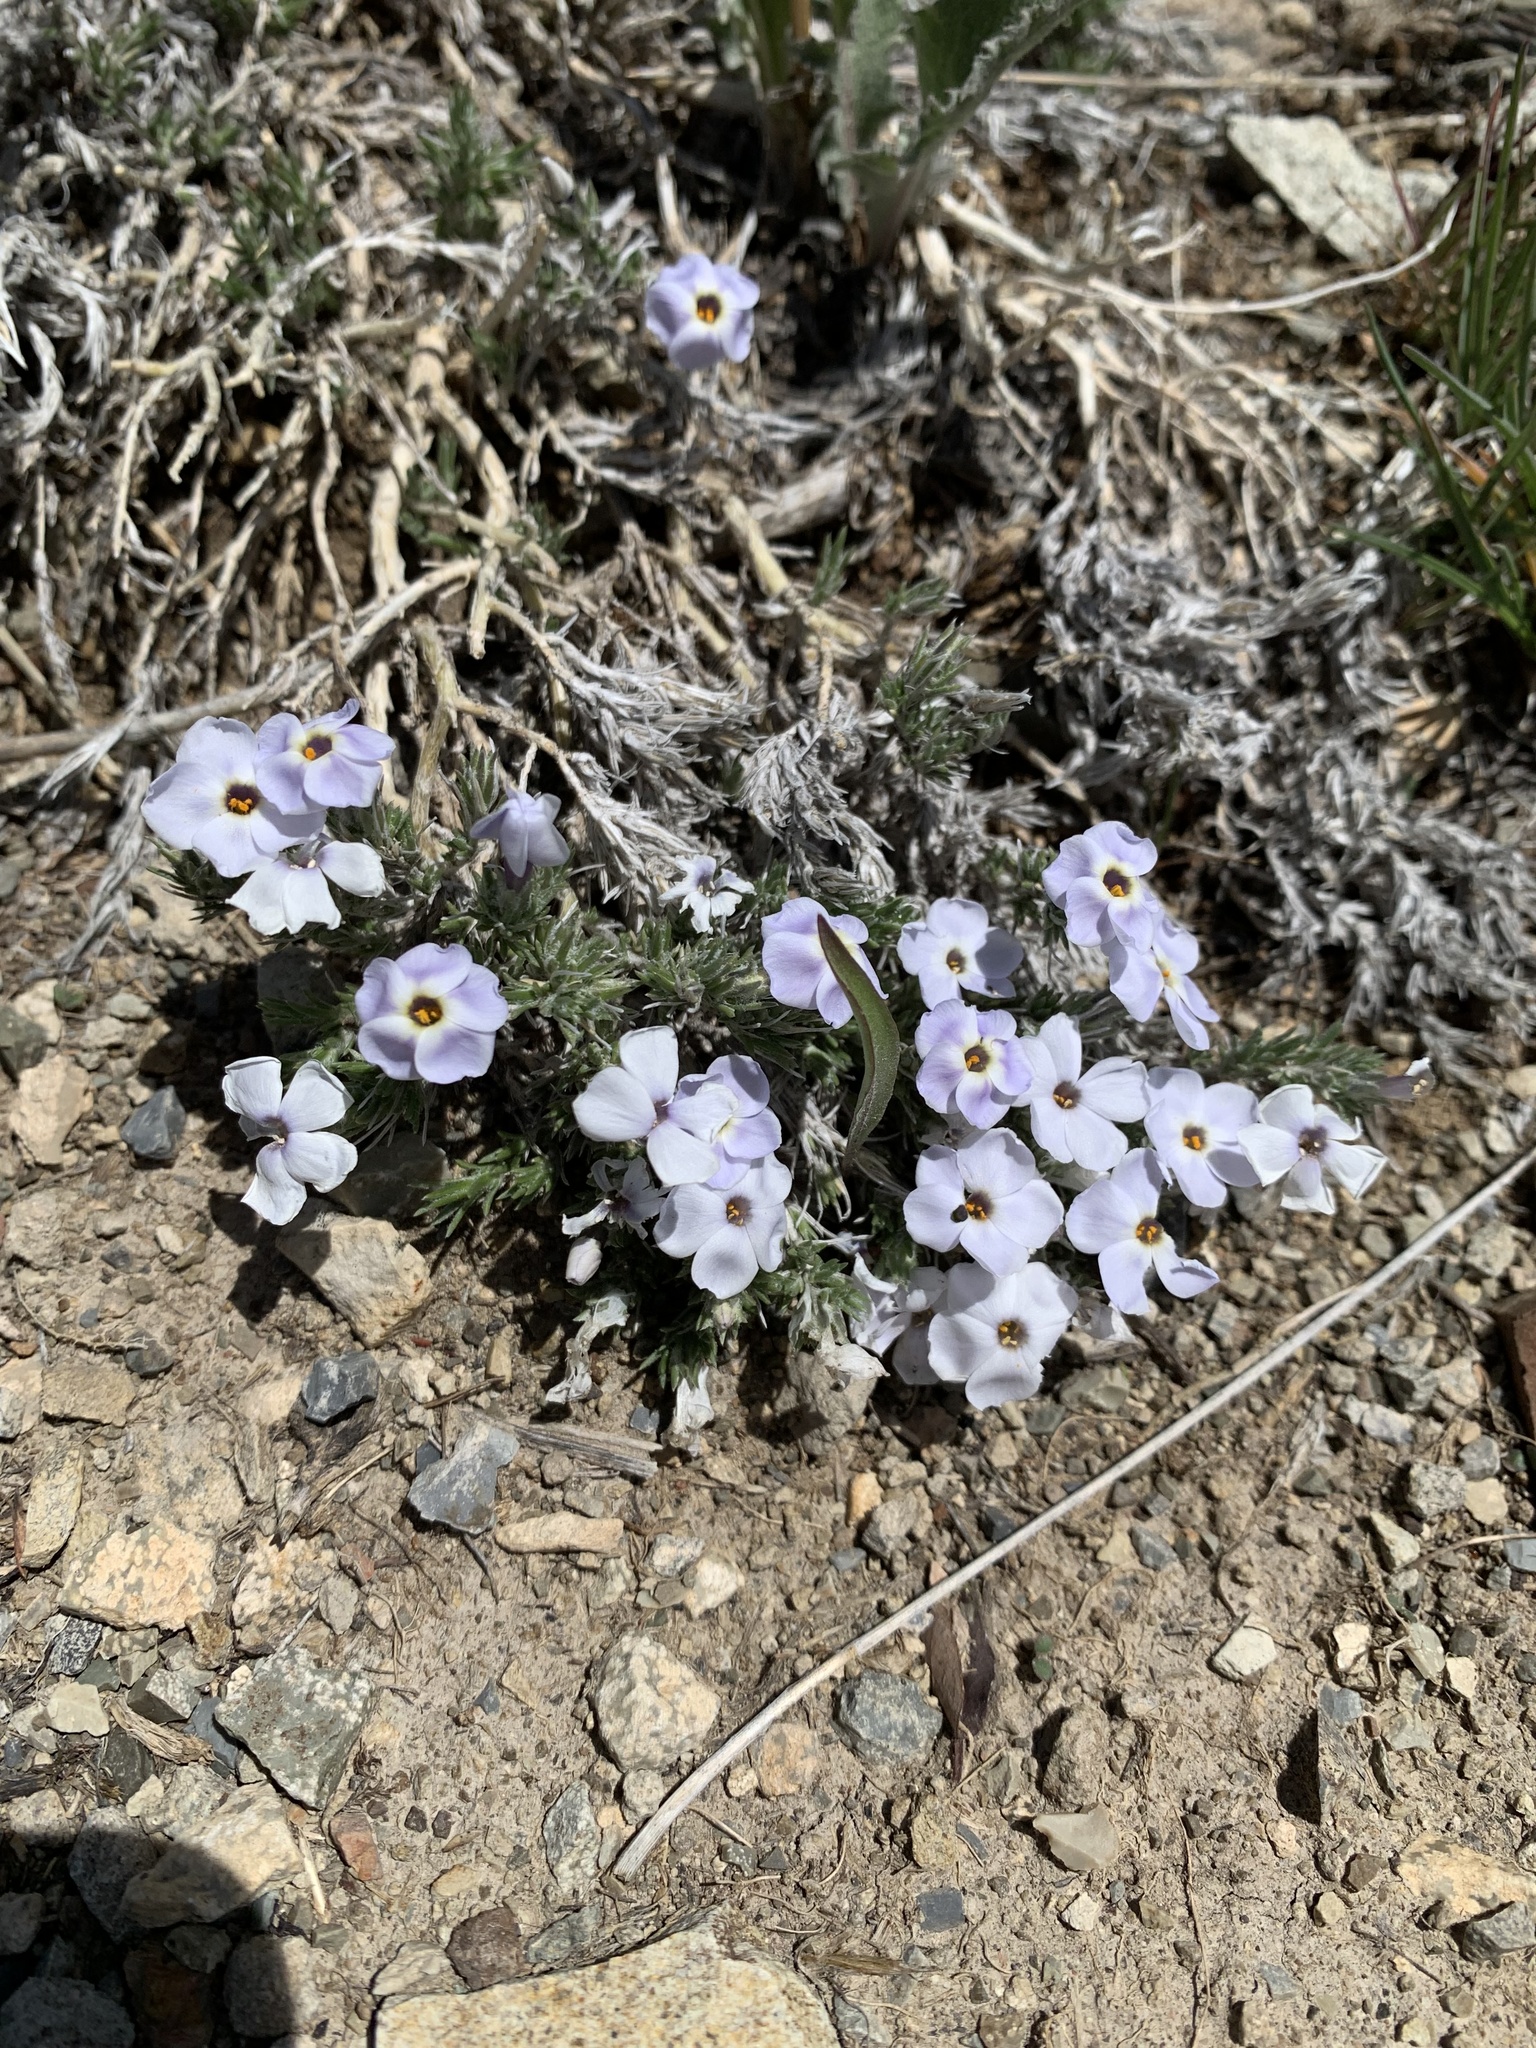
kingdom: Plantae
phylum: Tracheophyta
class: Magnoliopsida
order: Ericales
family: Polemoniaceae
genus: Phlox
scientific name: Phlox hoodii
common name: Moss phlox
